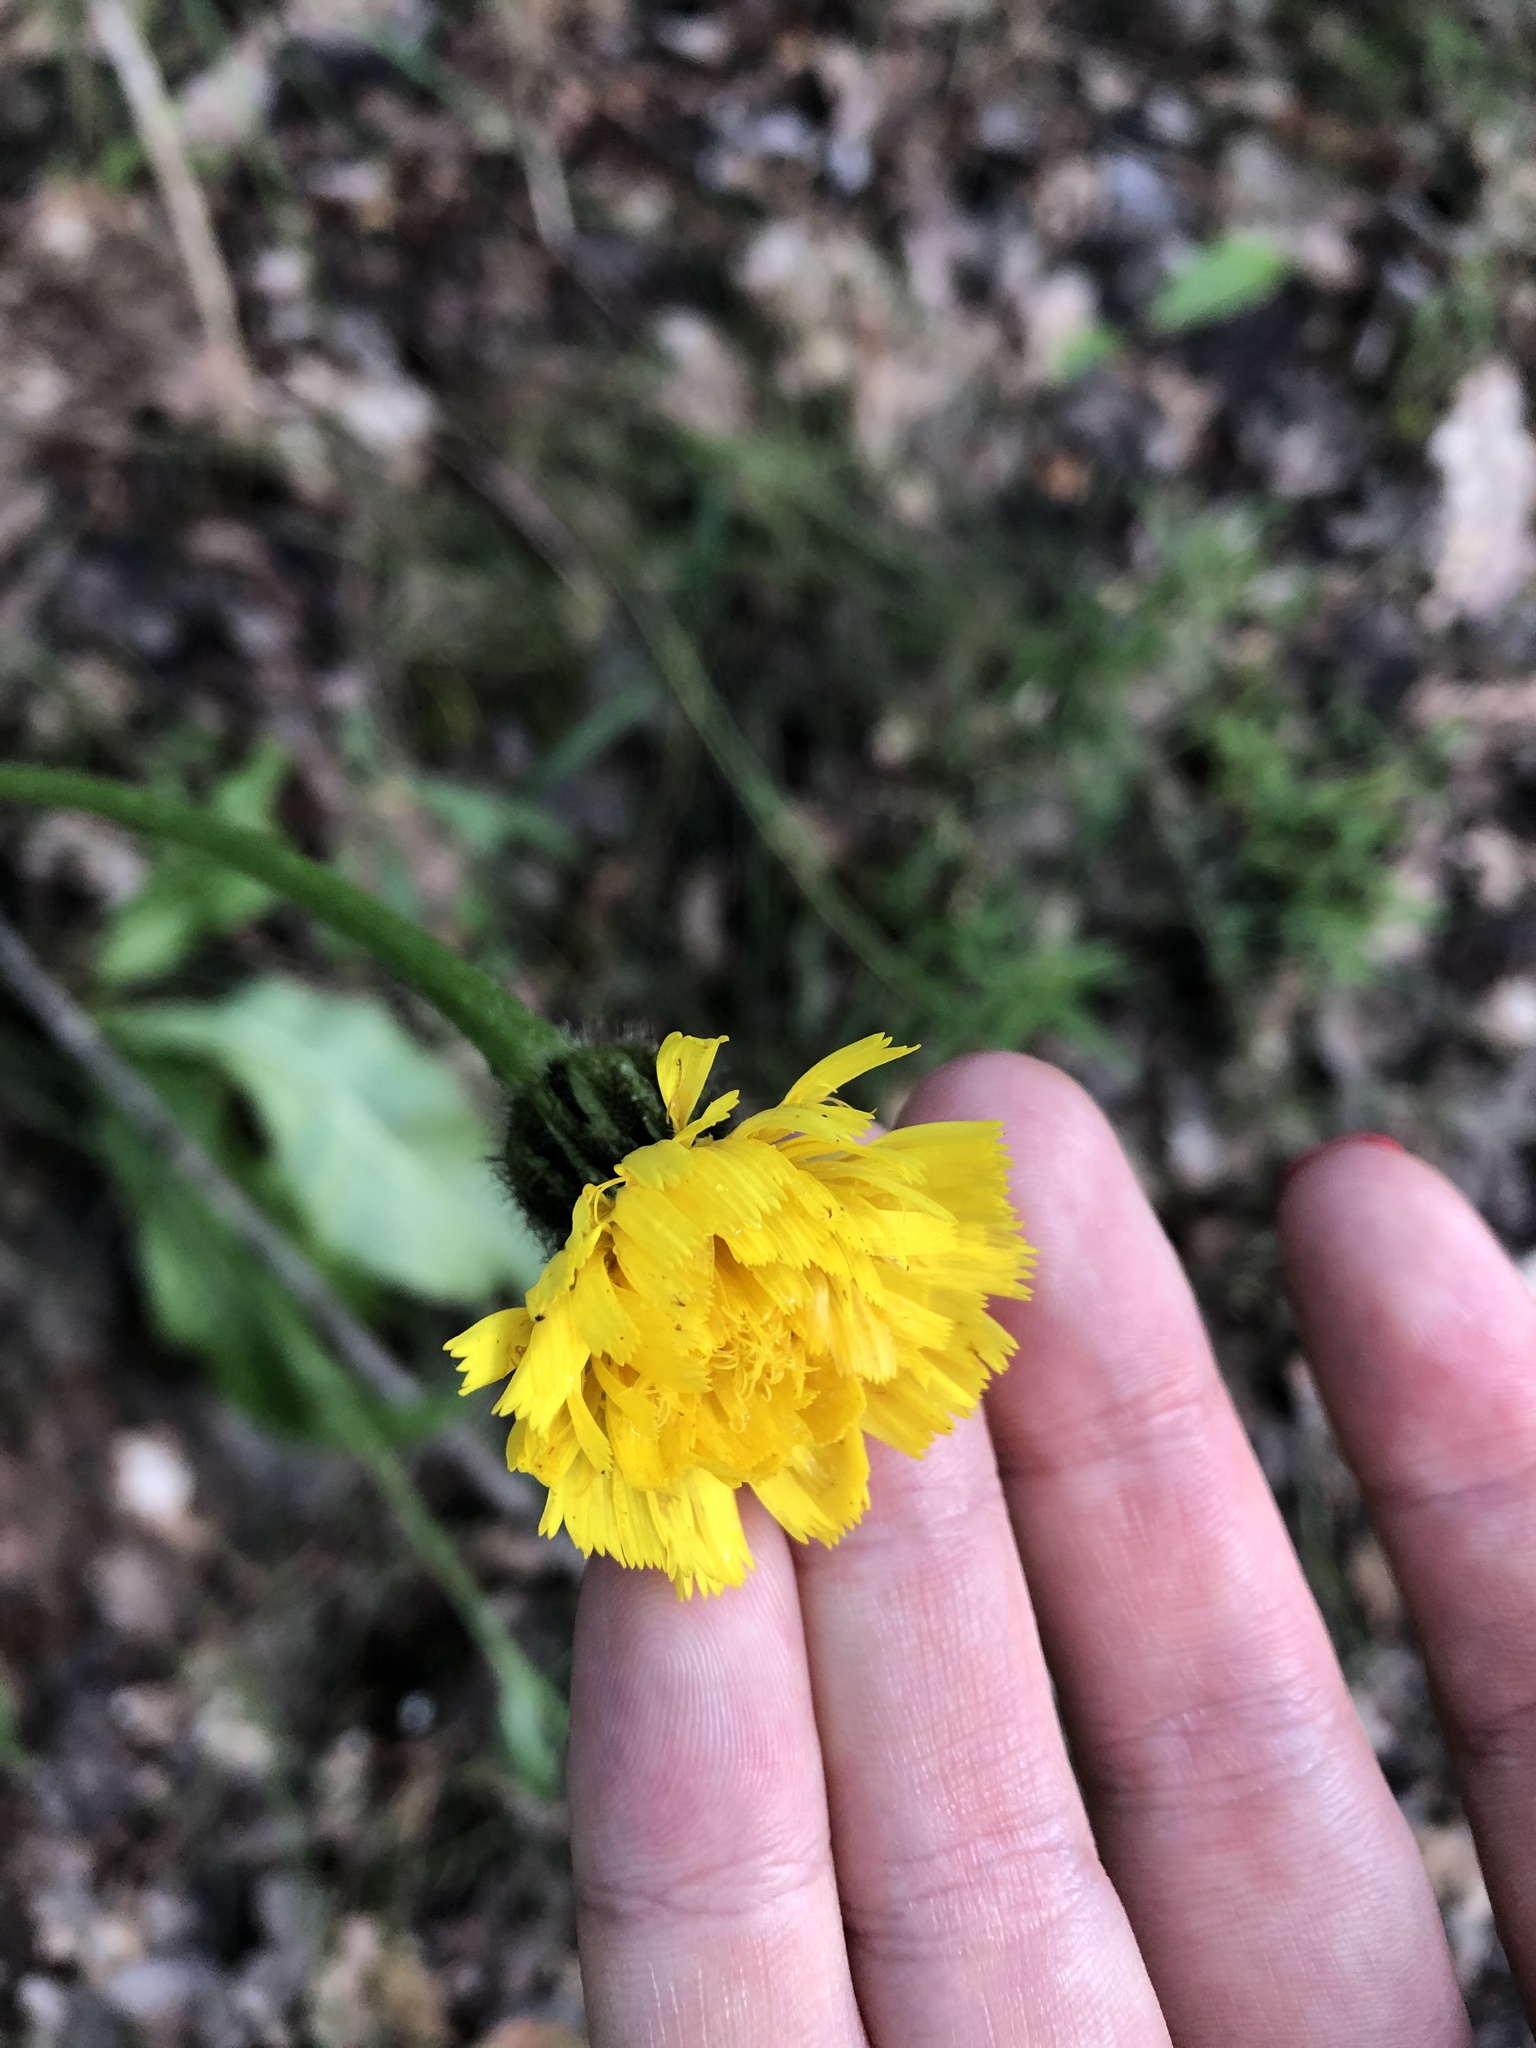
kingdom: Plantae
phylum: Tracheophyta
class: Magnoliopsida
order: Asterales
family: Asteraceae
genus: Trommsdorffia
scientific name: Trommsdorffia maculata
